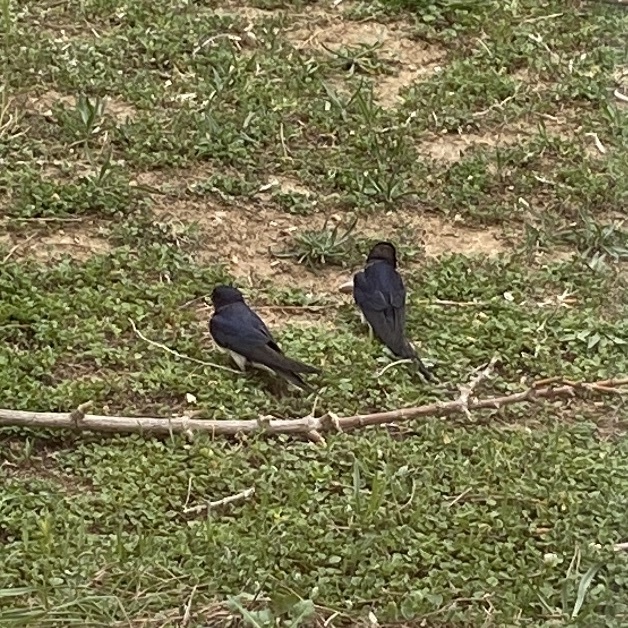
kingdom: Animalia
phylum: Chordata
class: Aves
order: Passeriformes
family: Hirundinidae
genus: Hirundo
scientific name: Hirundo rustica
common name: Barn swallow
